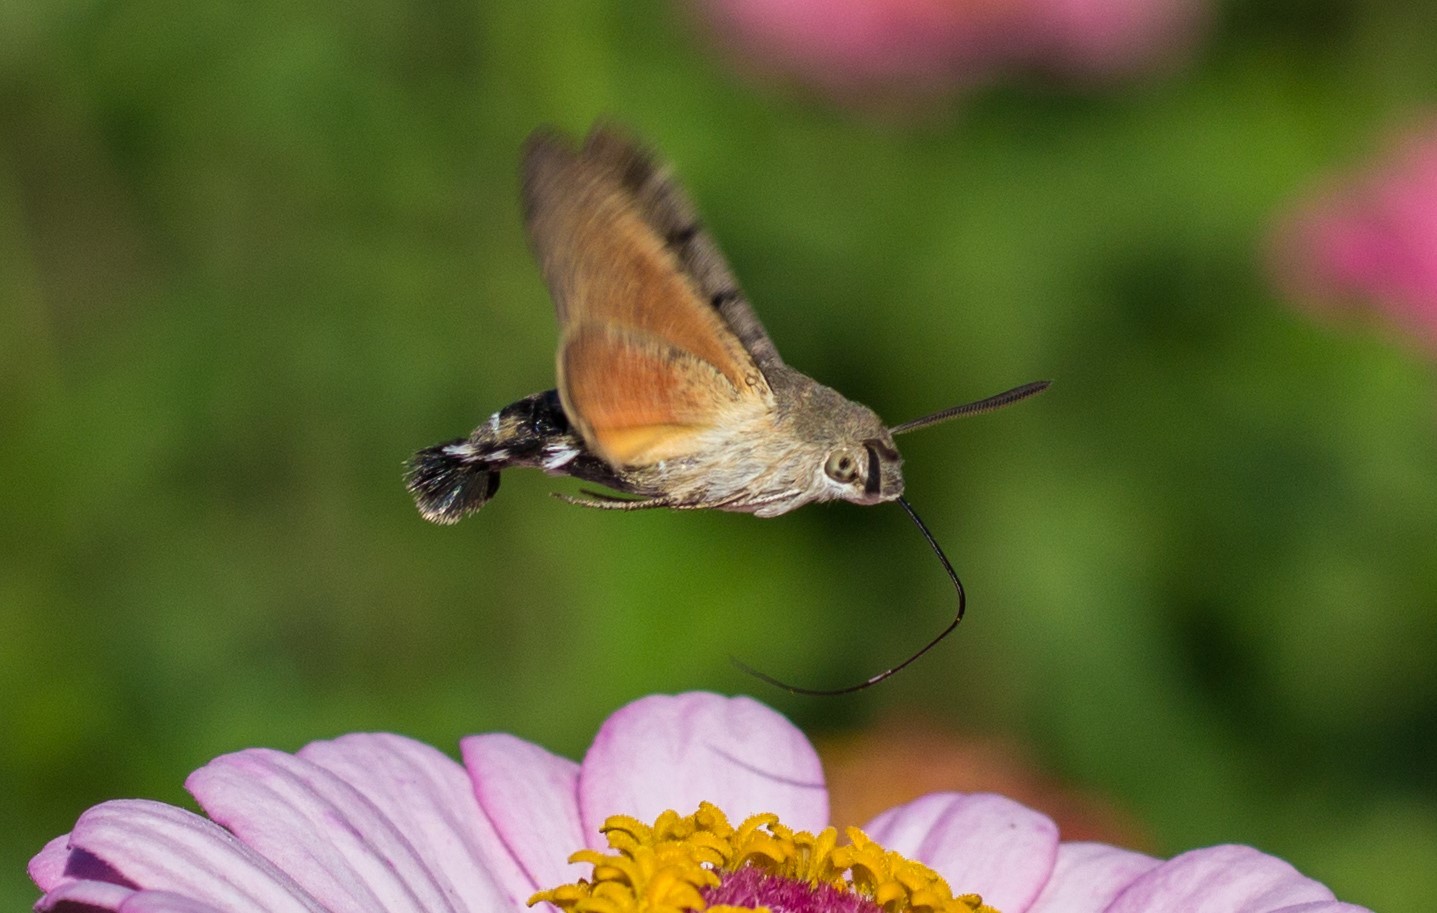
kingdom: Animalia
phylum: Arthropoda
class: Insecta
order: Lepidoptera
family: Sphingidae
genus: Macroglossum
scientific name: Macroglossum stellatarum
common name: Humming-bird hawk-moth
